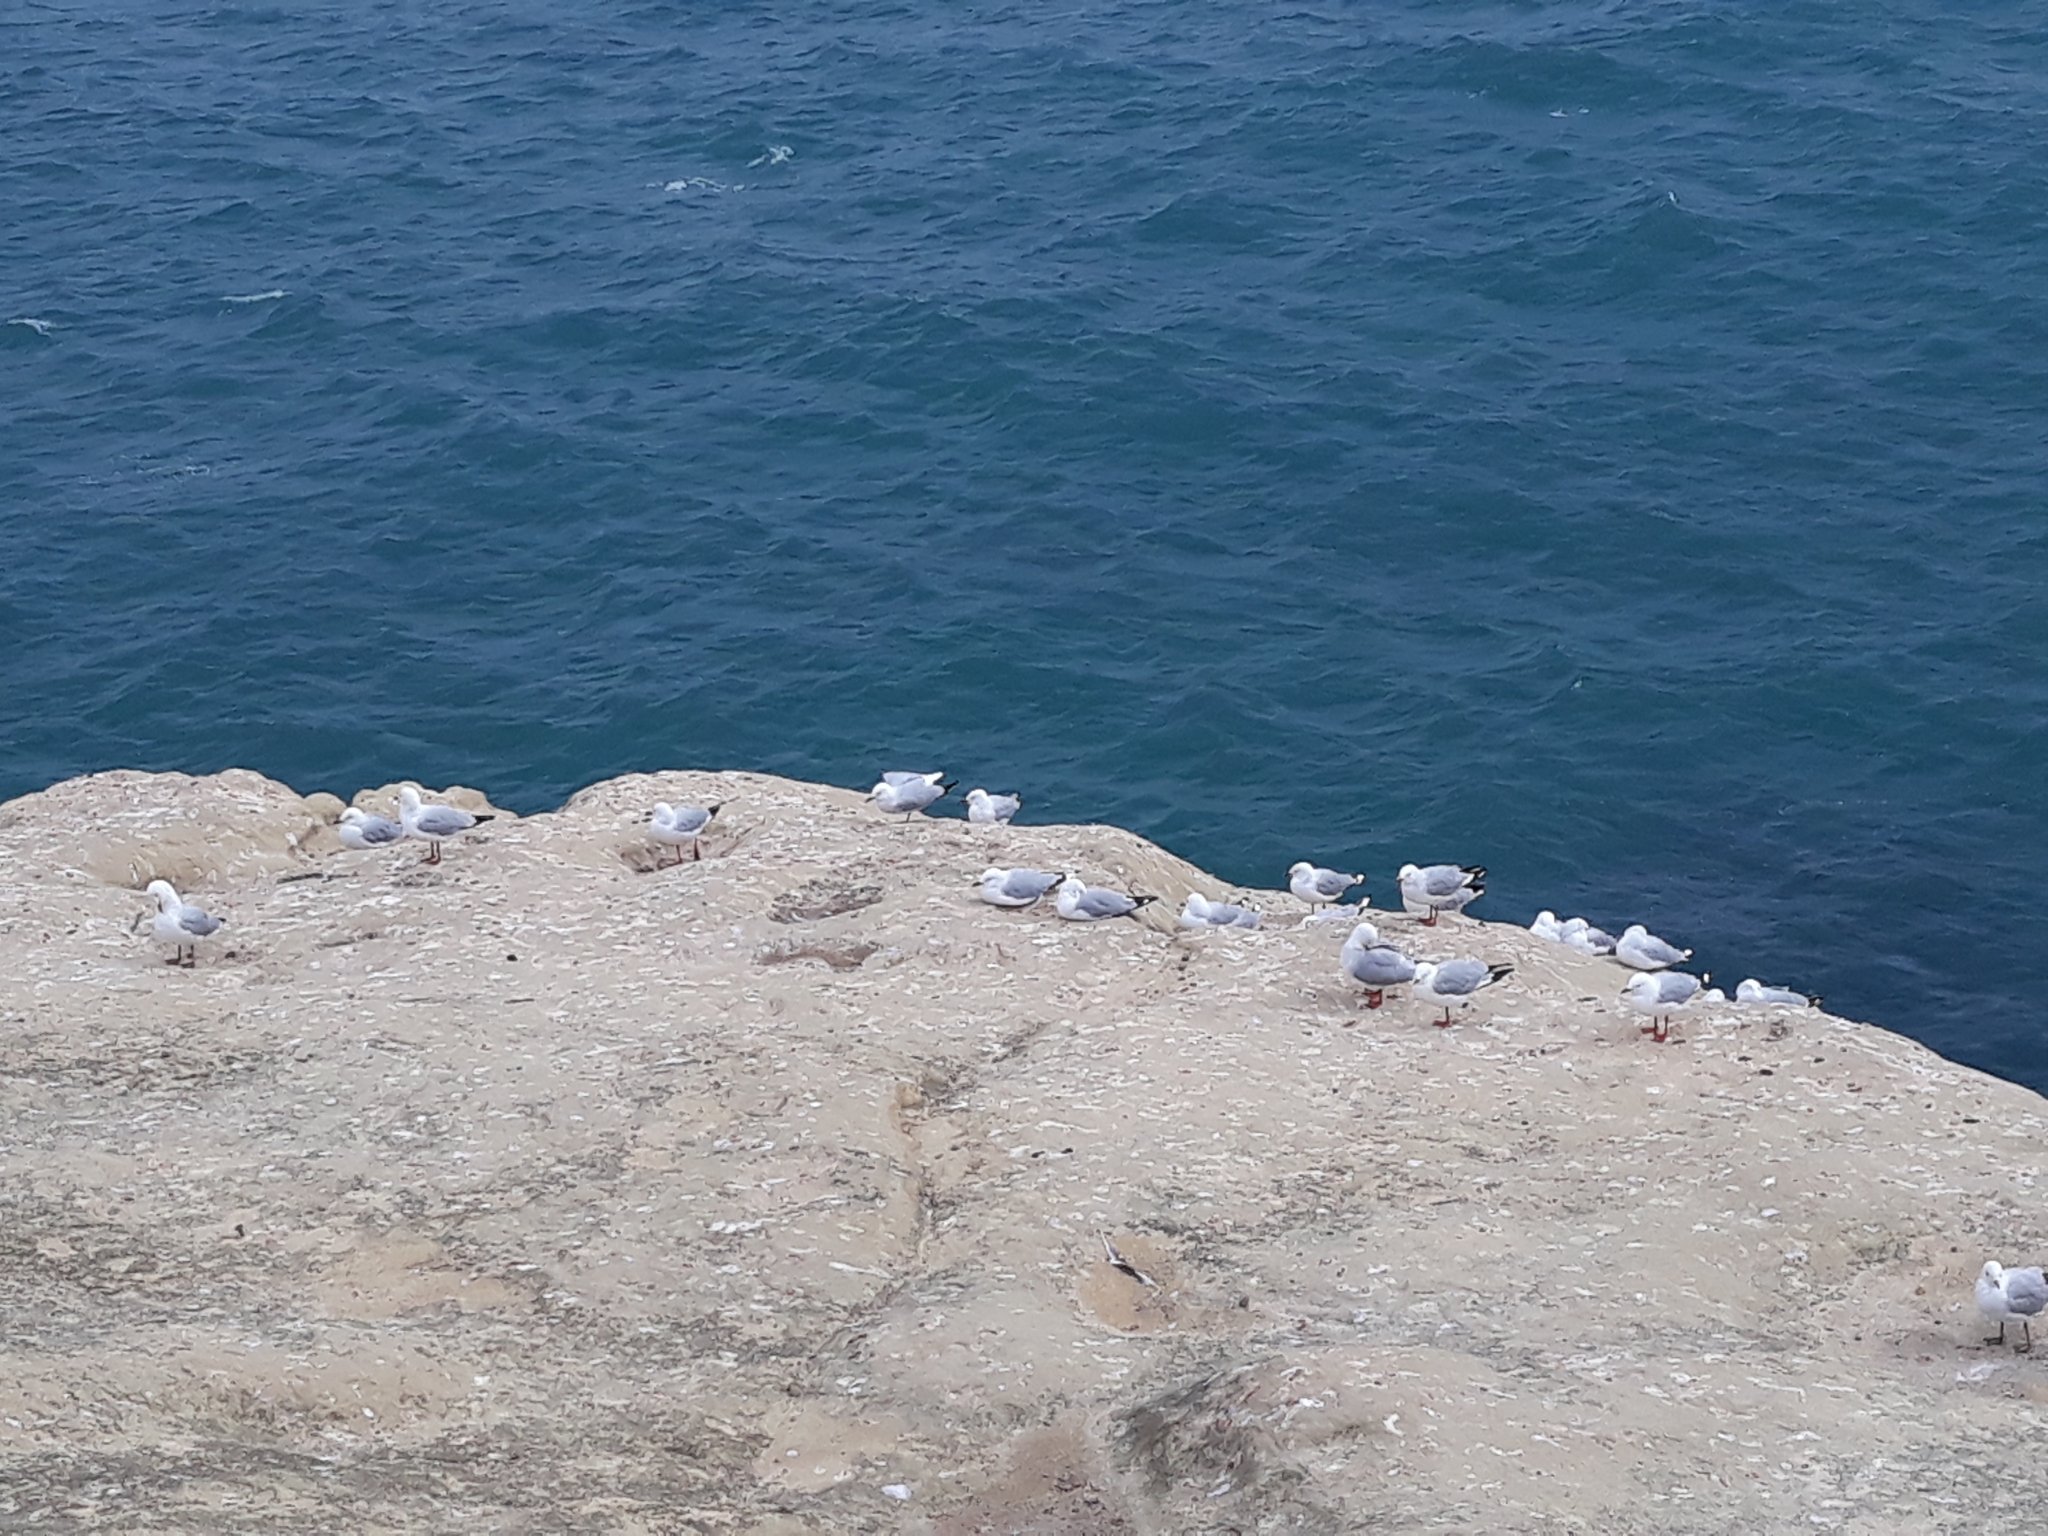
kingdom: Animalia
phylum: Chordata
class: Aves
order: Charadriiformes
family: Laridae
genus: Chroicocephalus
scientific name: Chroicocephalus novaehollandiae
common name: Silver gull
